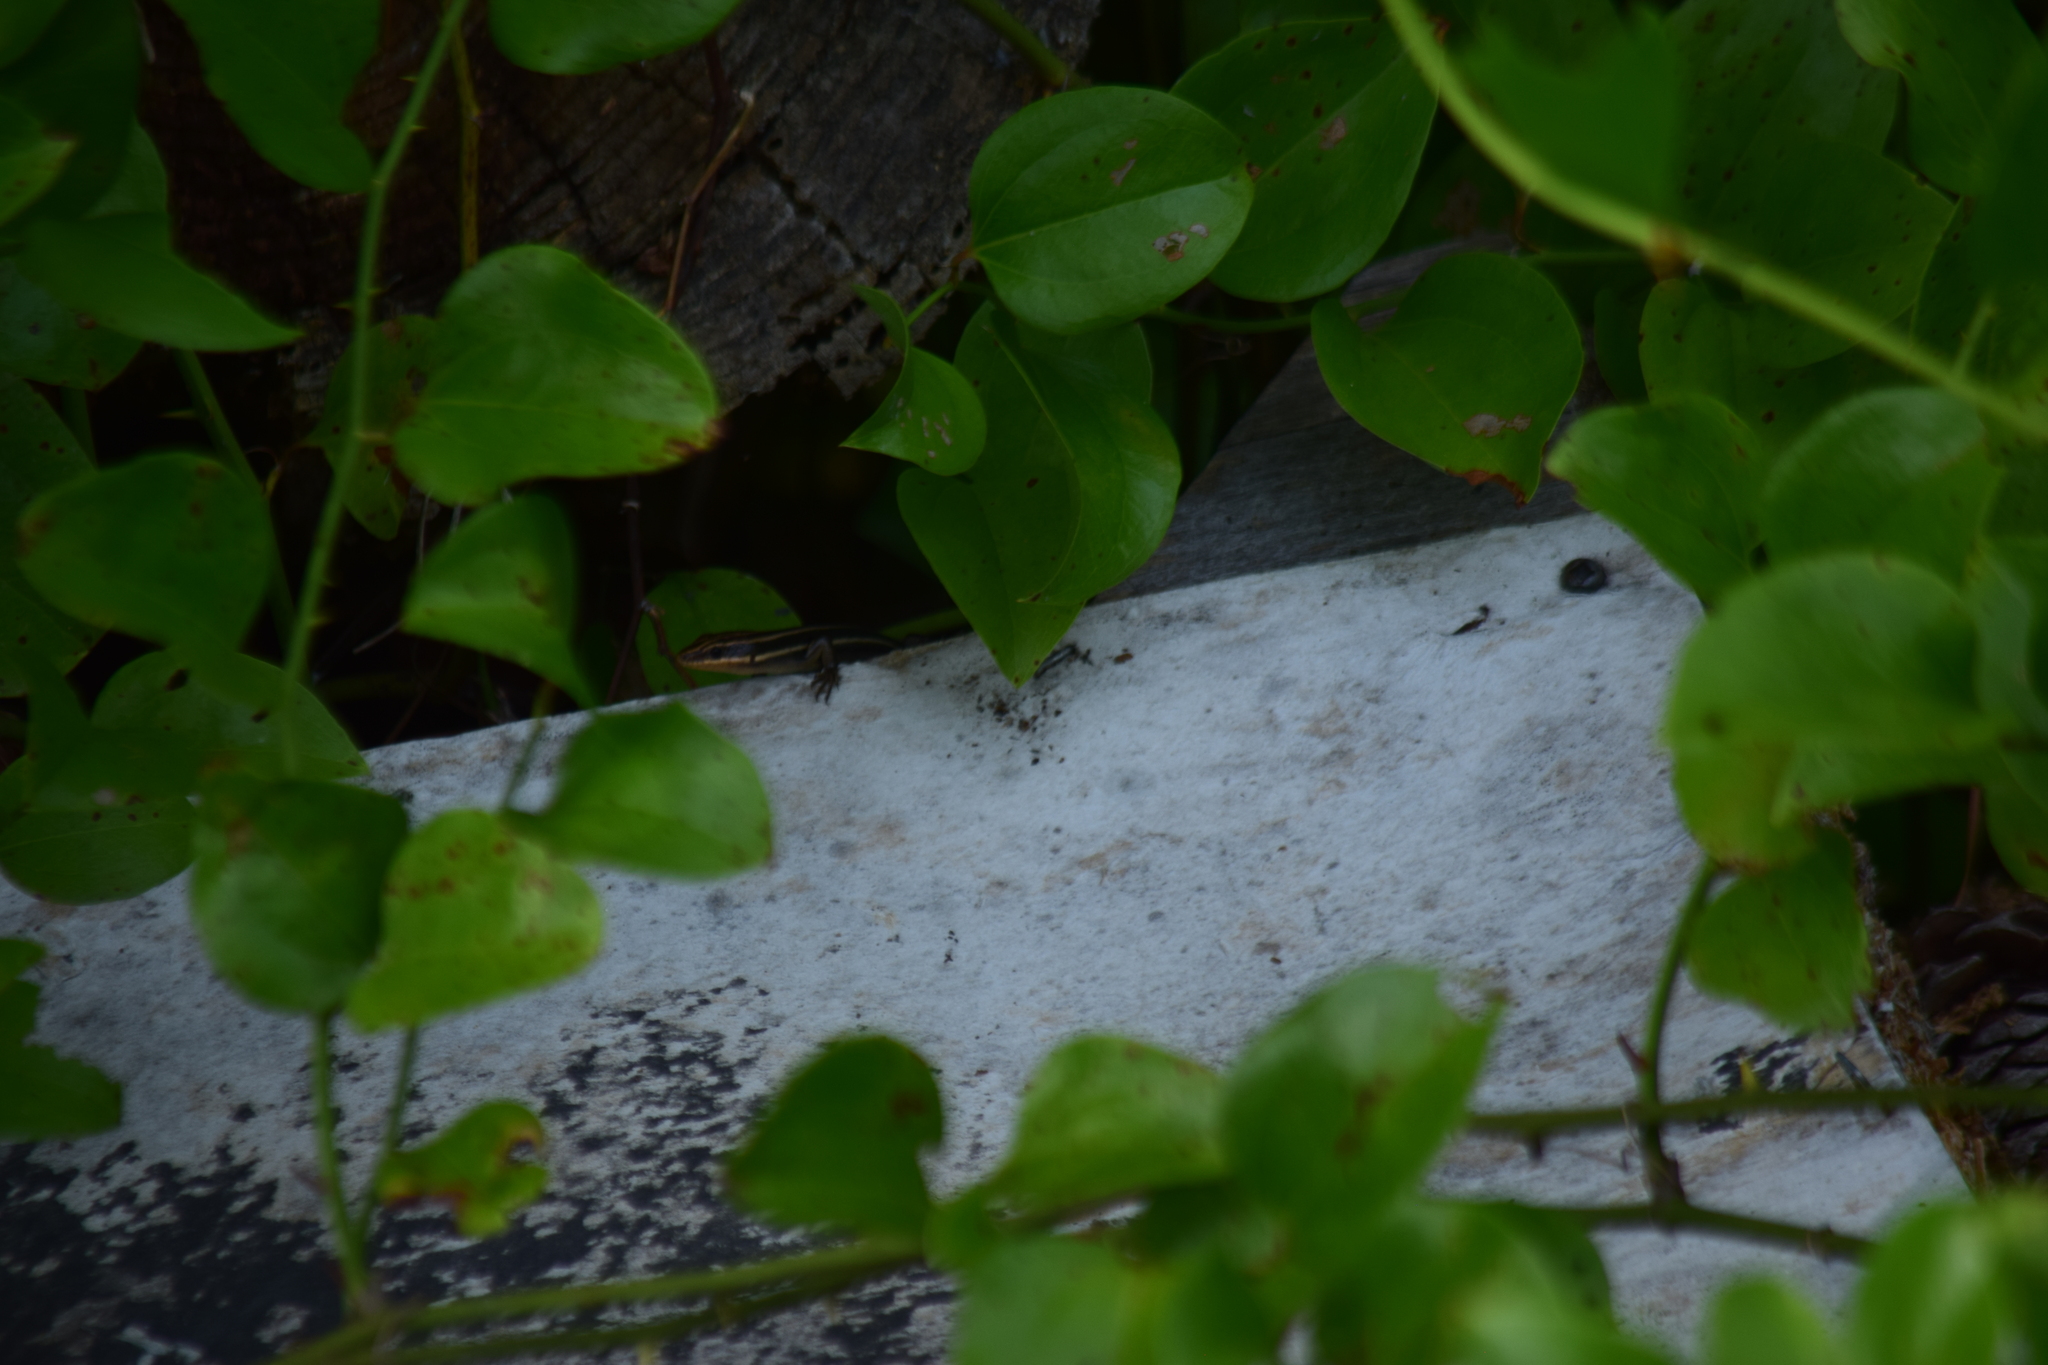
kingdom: Animalia
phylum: Chordata
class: Squamata
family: Scincidae
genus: Plestiodon
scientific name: Plestiodon fasciatus
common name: Five-lined skink
